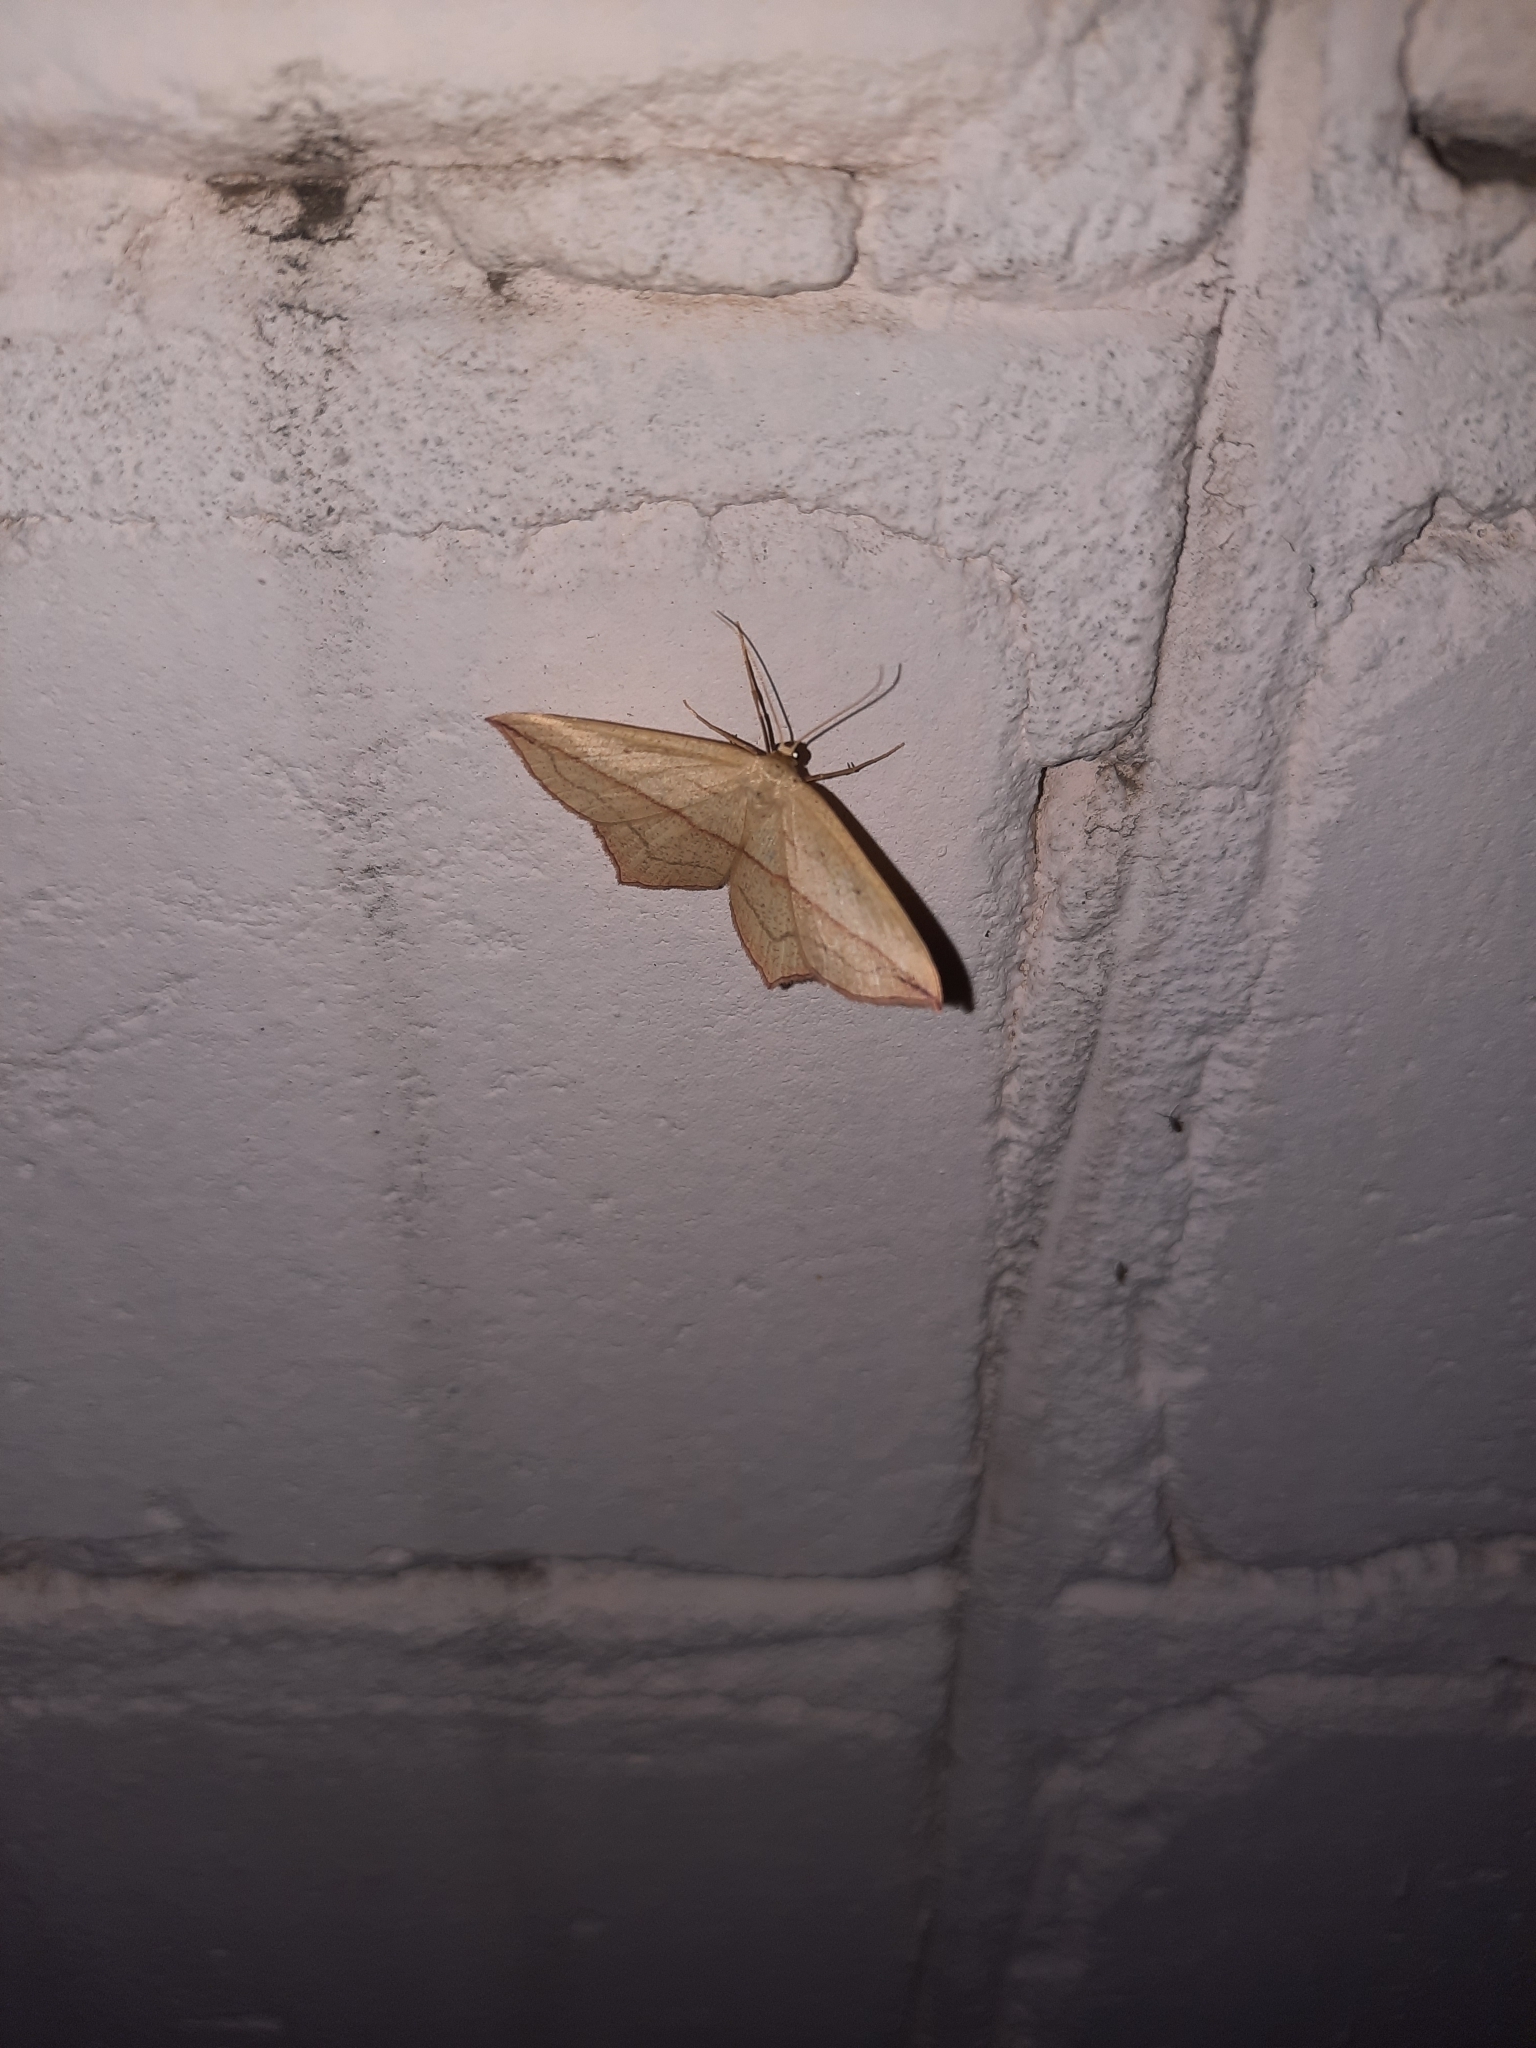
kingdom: Animalia
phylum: Arthropoda
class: Insecta
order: Lepidoptera
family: Geometridae
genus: Timandra
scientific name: Timandra comae
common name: Blood-vein
